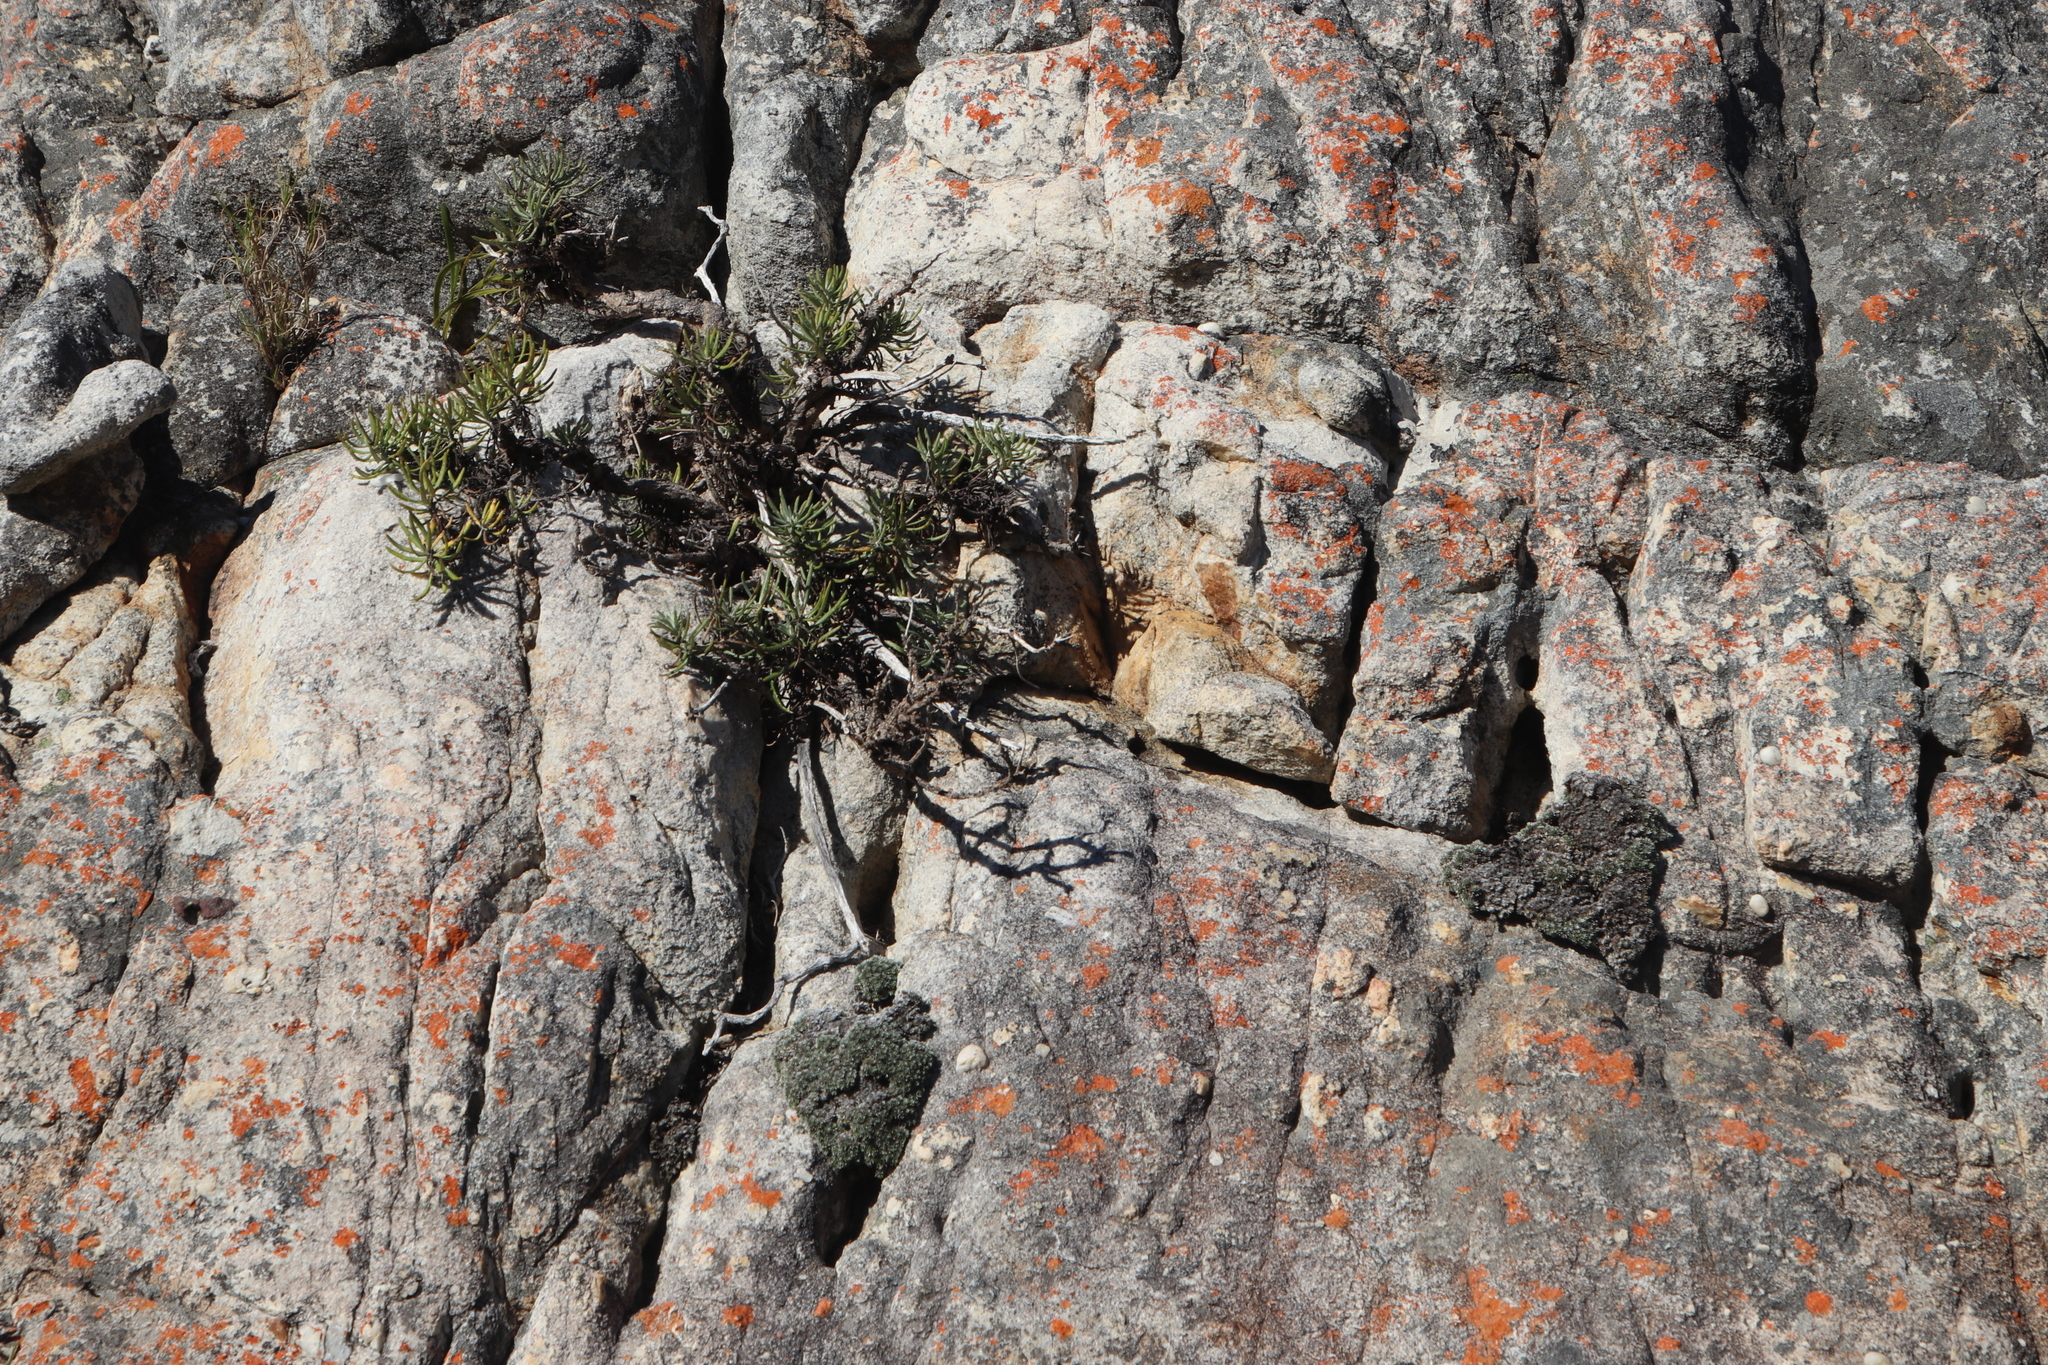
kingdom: Plantae
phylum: Tracheophyta
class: Magnoliopsida
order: Asterales
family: Asteraceae
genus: Muscosomorphe
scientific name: Muscosomorphe aretioides
